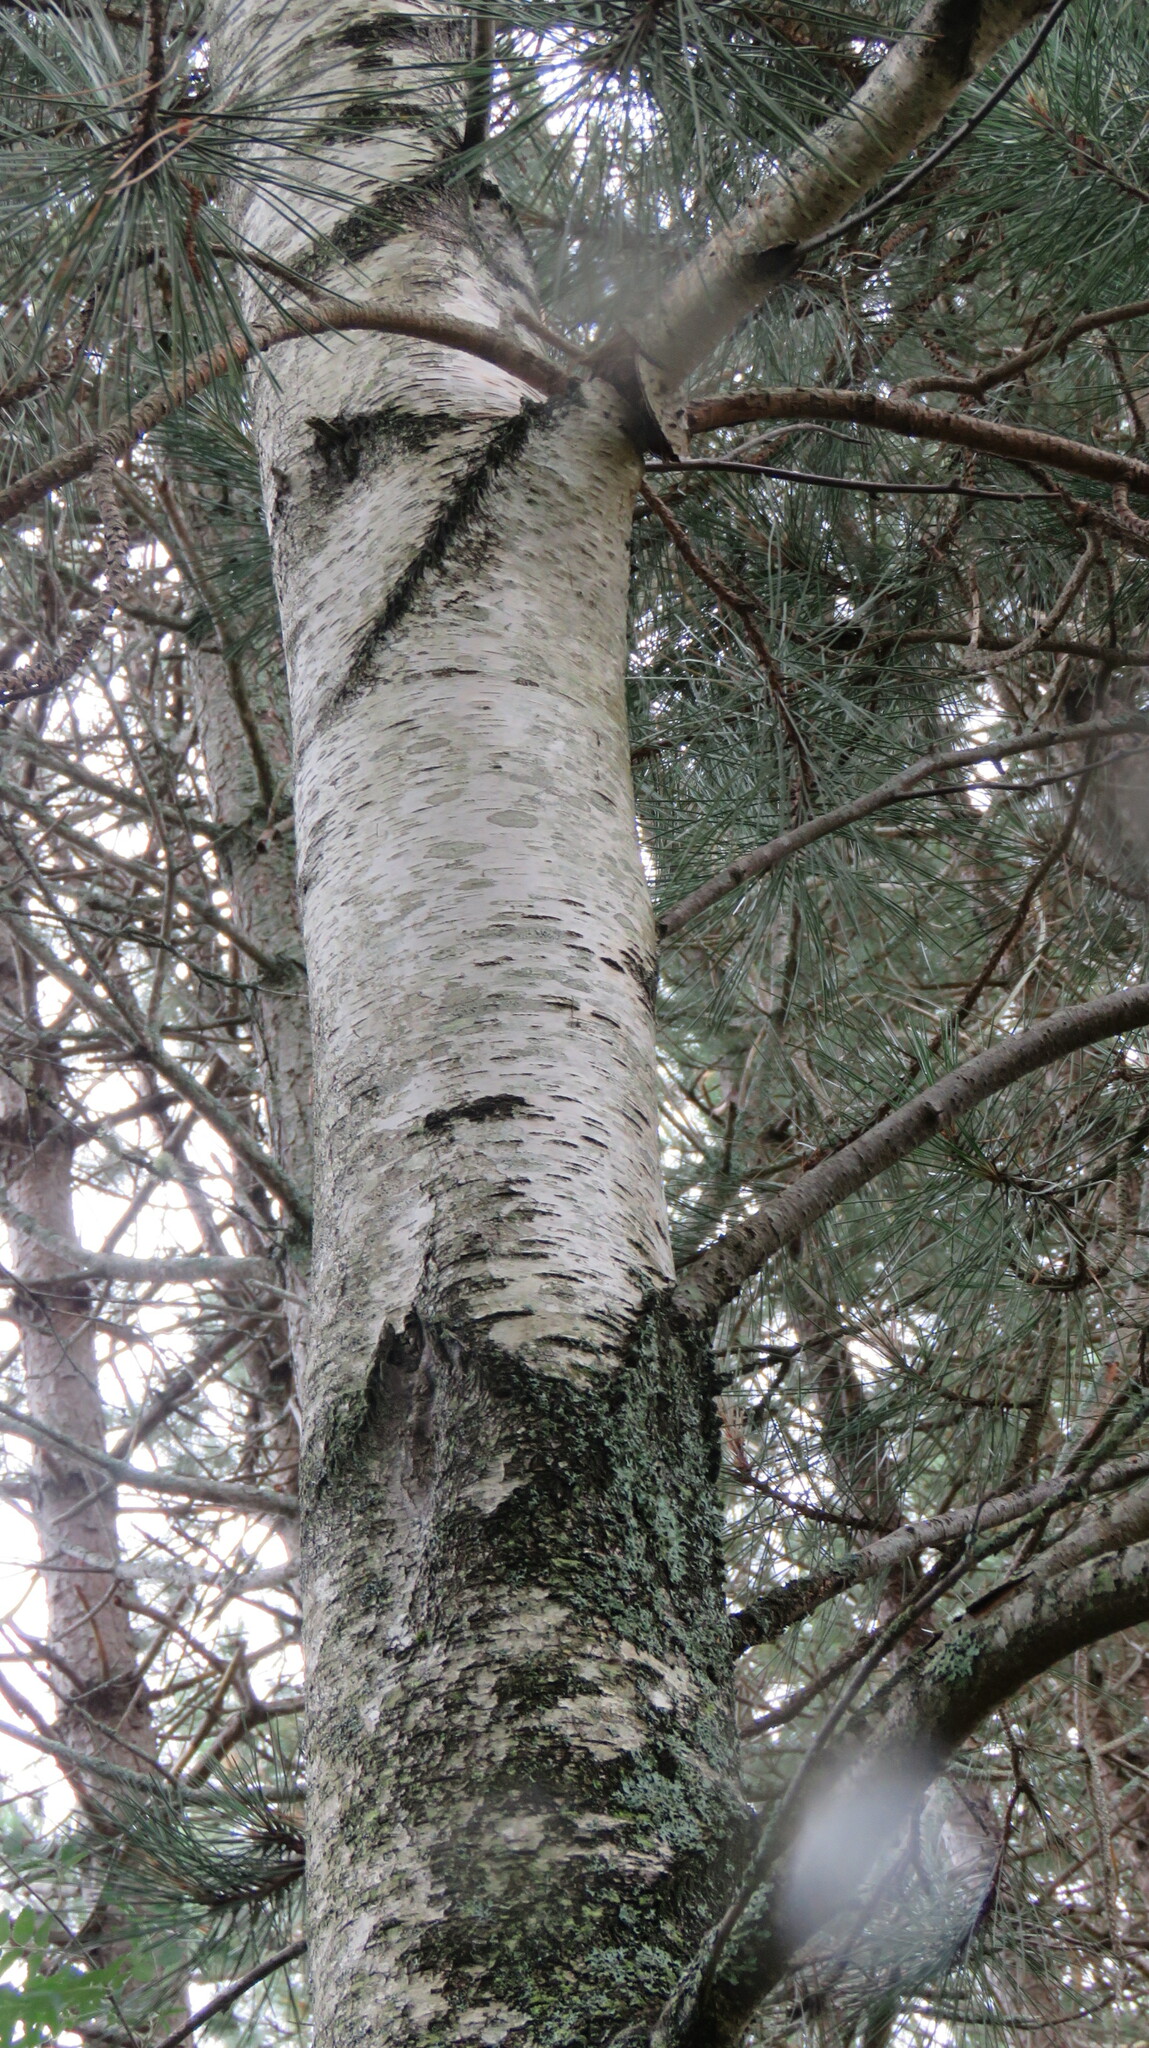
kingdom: Plantae
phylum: Tracheophyta
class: Magnoliopsida
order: Fagales
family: Betulaceae
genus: Betula
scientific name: Betula populifolia
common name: Fire birch
